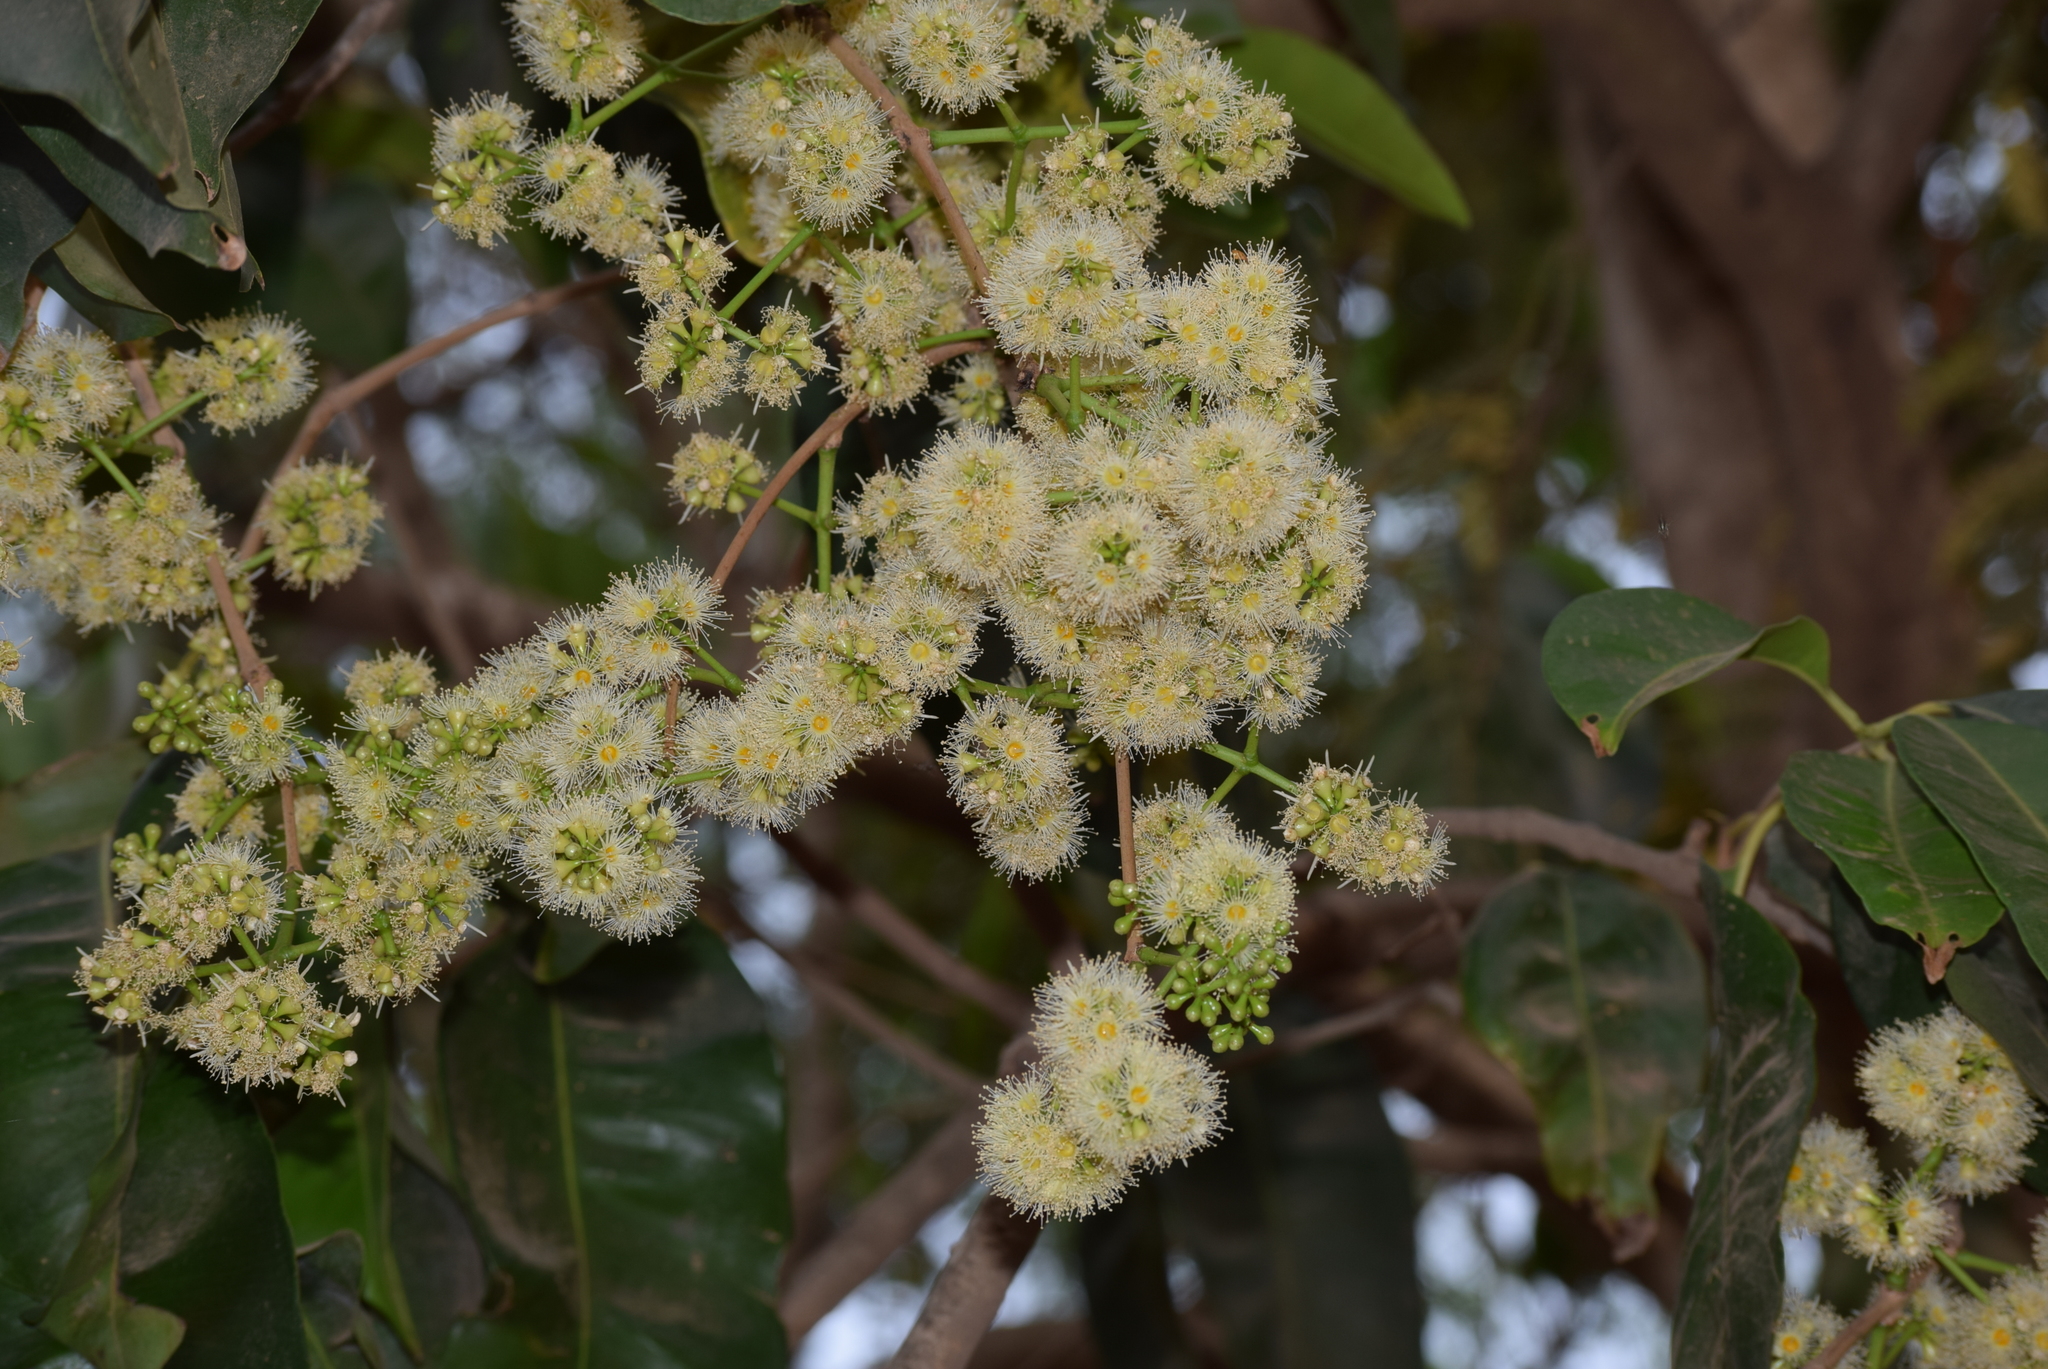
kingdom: Plantae
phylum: Tracheophyta
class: Magnoliopsida
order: Myrtales
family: Myrtaceae
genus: Syzygium
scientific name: Syzygium cumini
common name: Java plum
